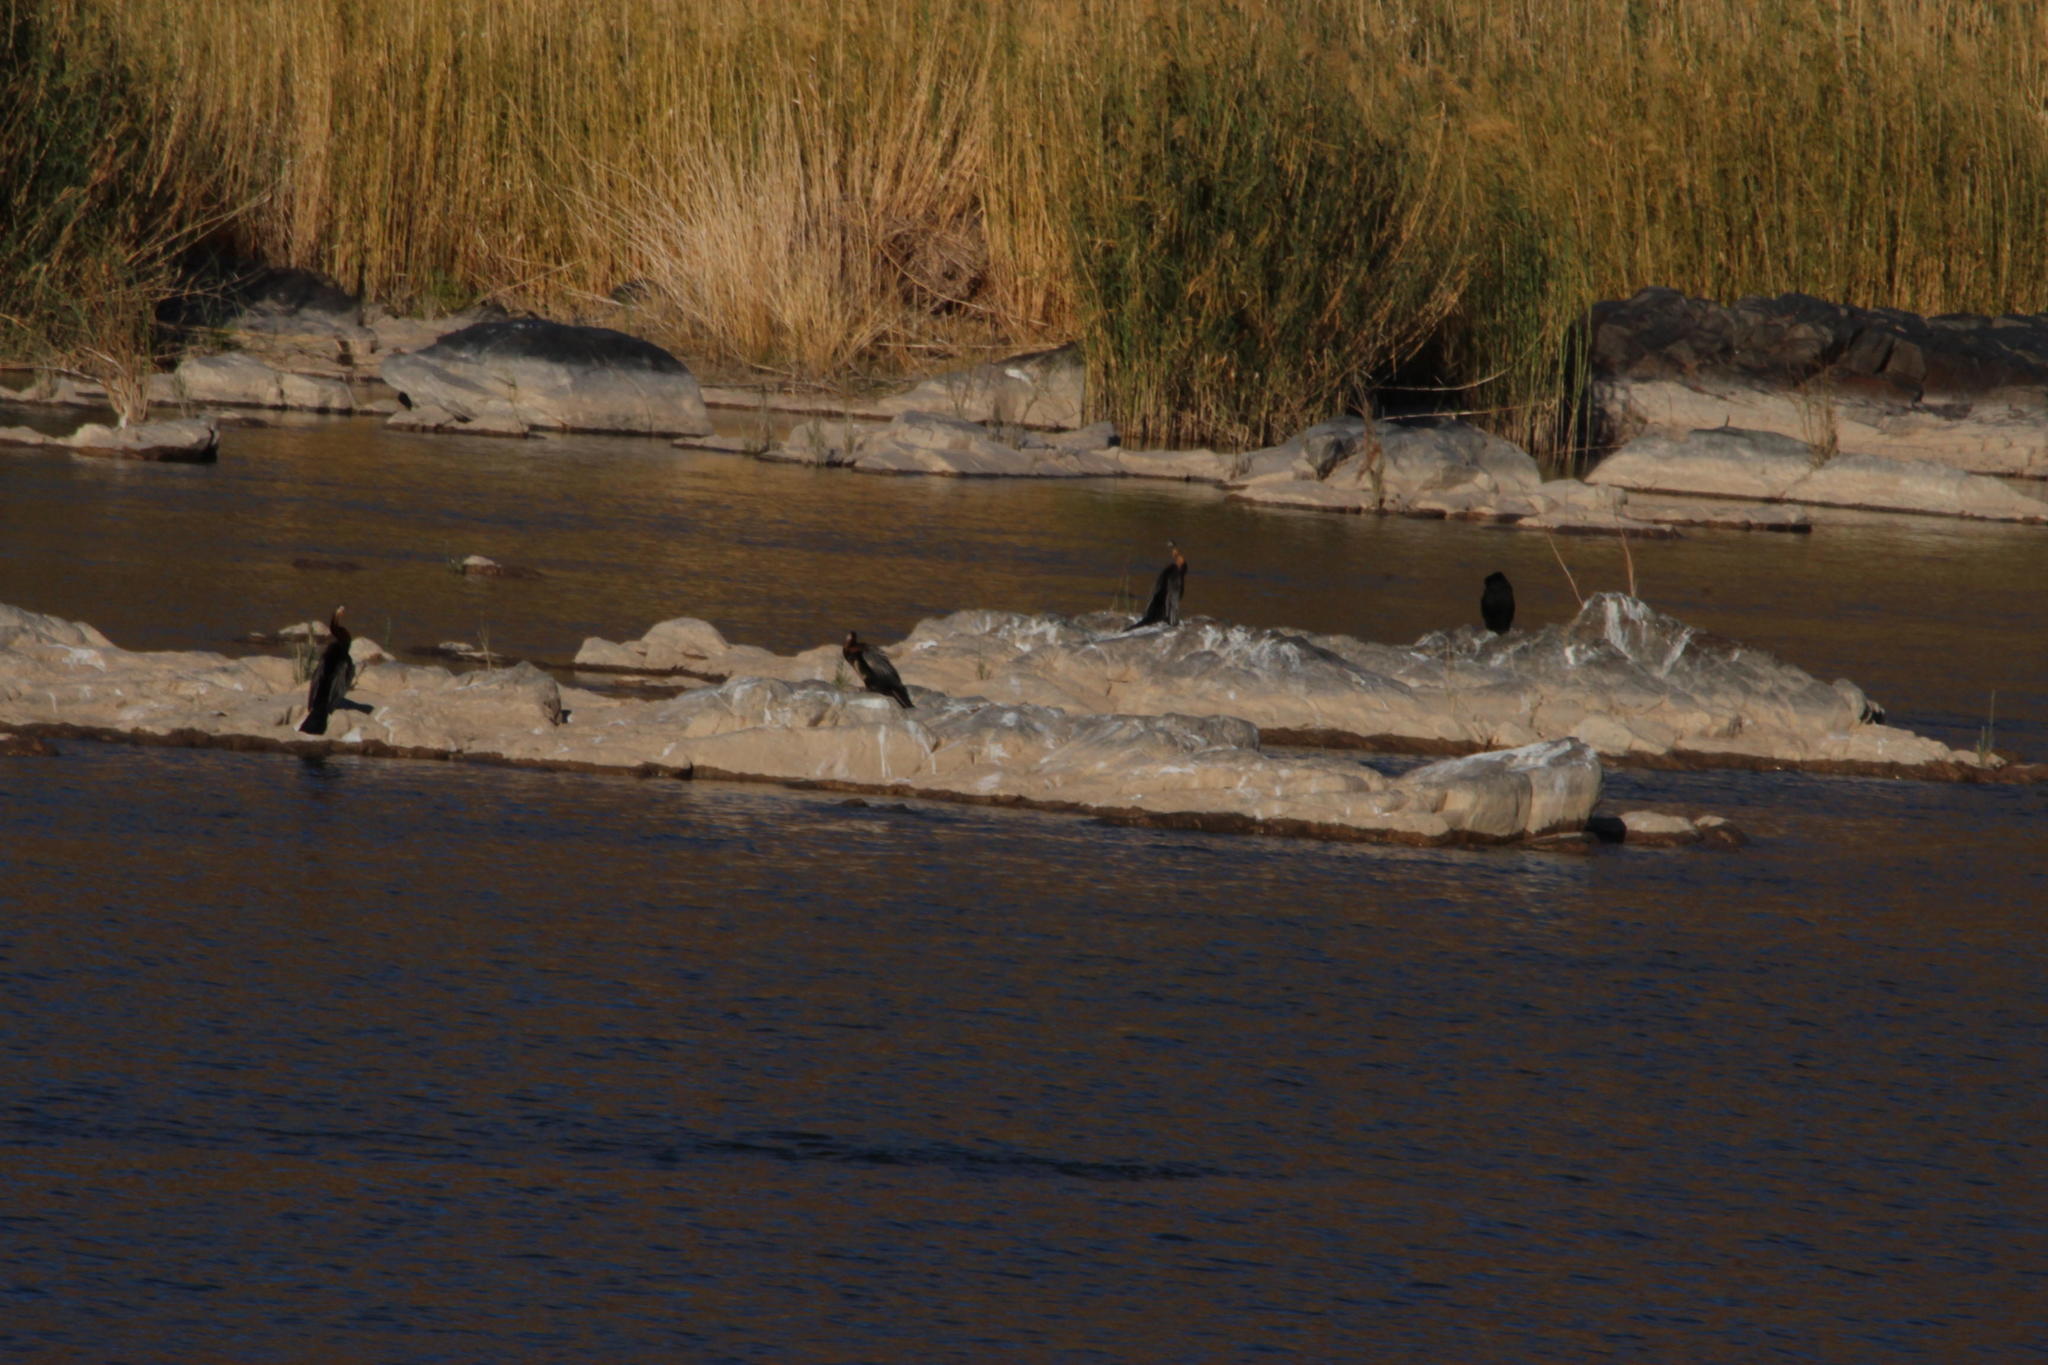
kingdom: Animalia
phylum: Chordata
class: Aves
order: Suliformes
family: Phalacrocoracidae
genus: Phalacrocorax
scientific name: Phalacrocorax carbo
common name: Great cormorant
